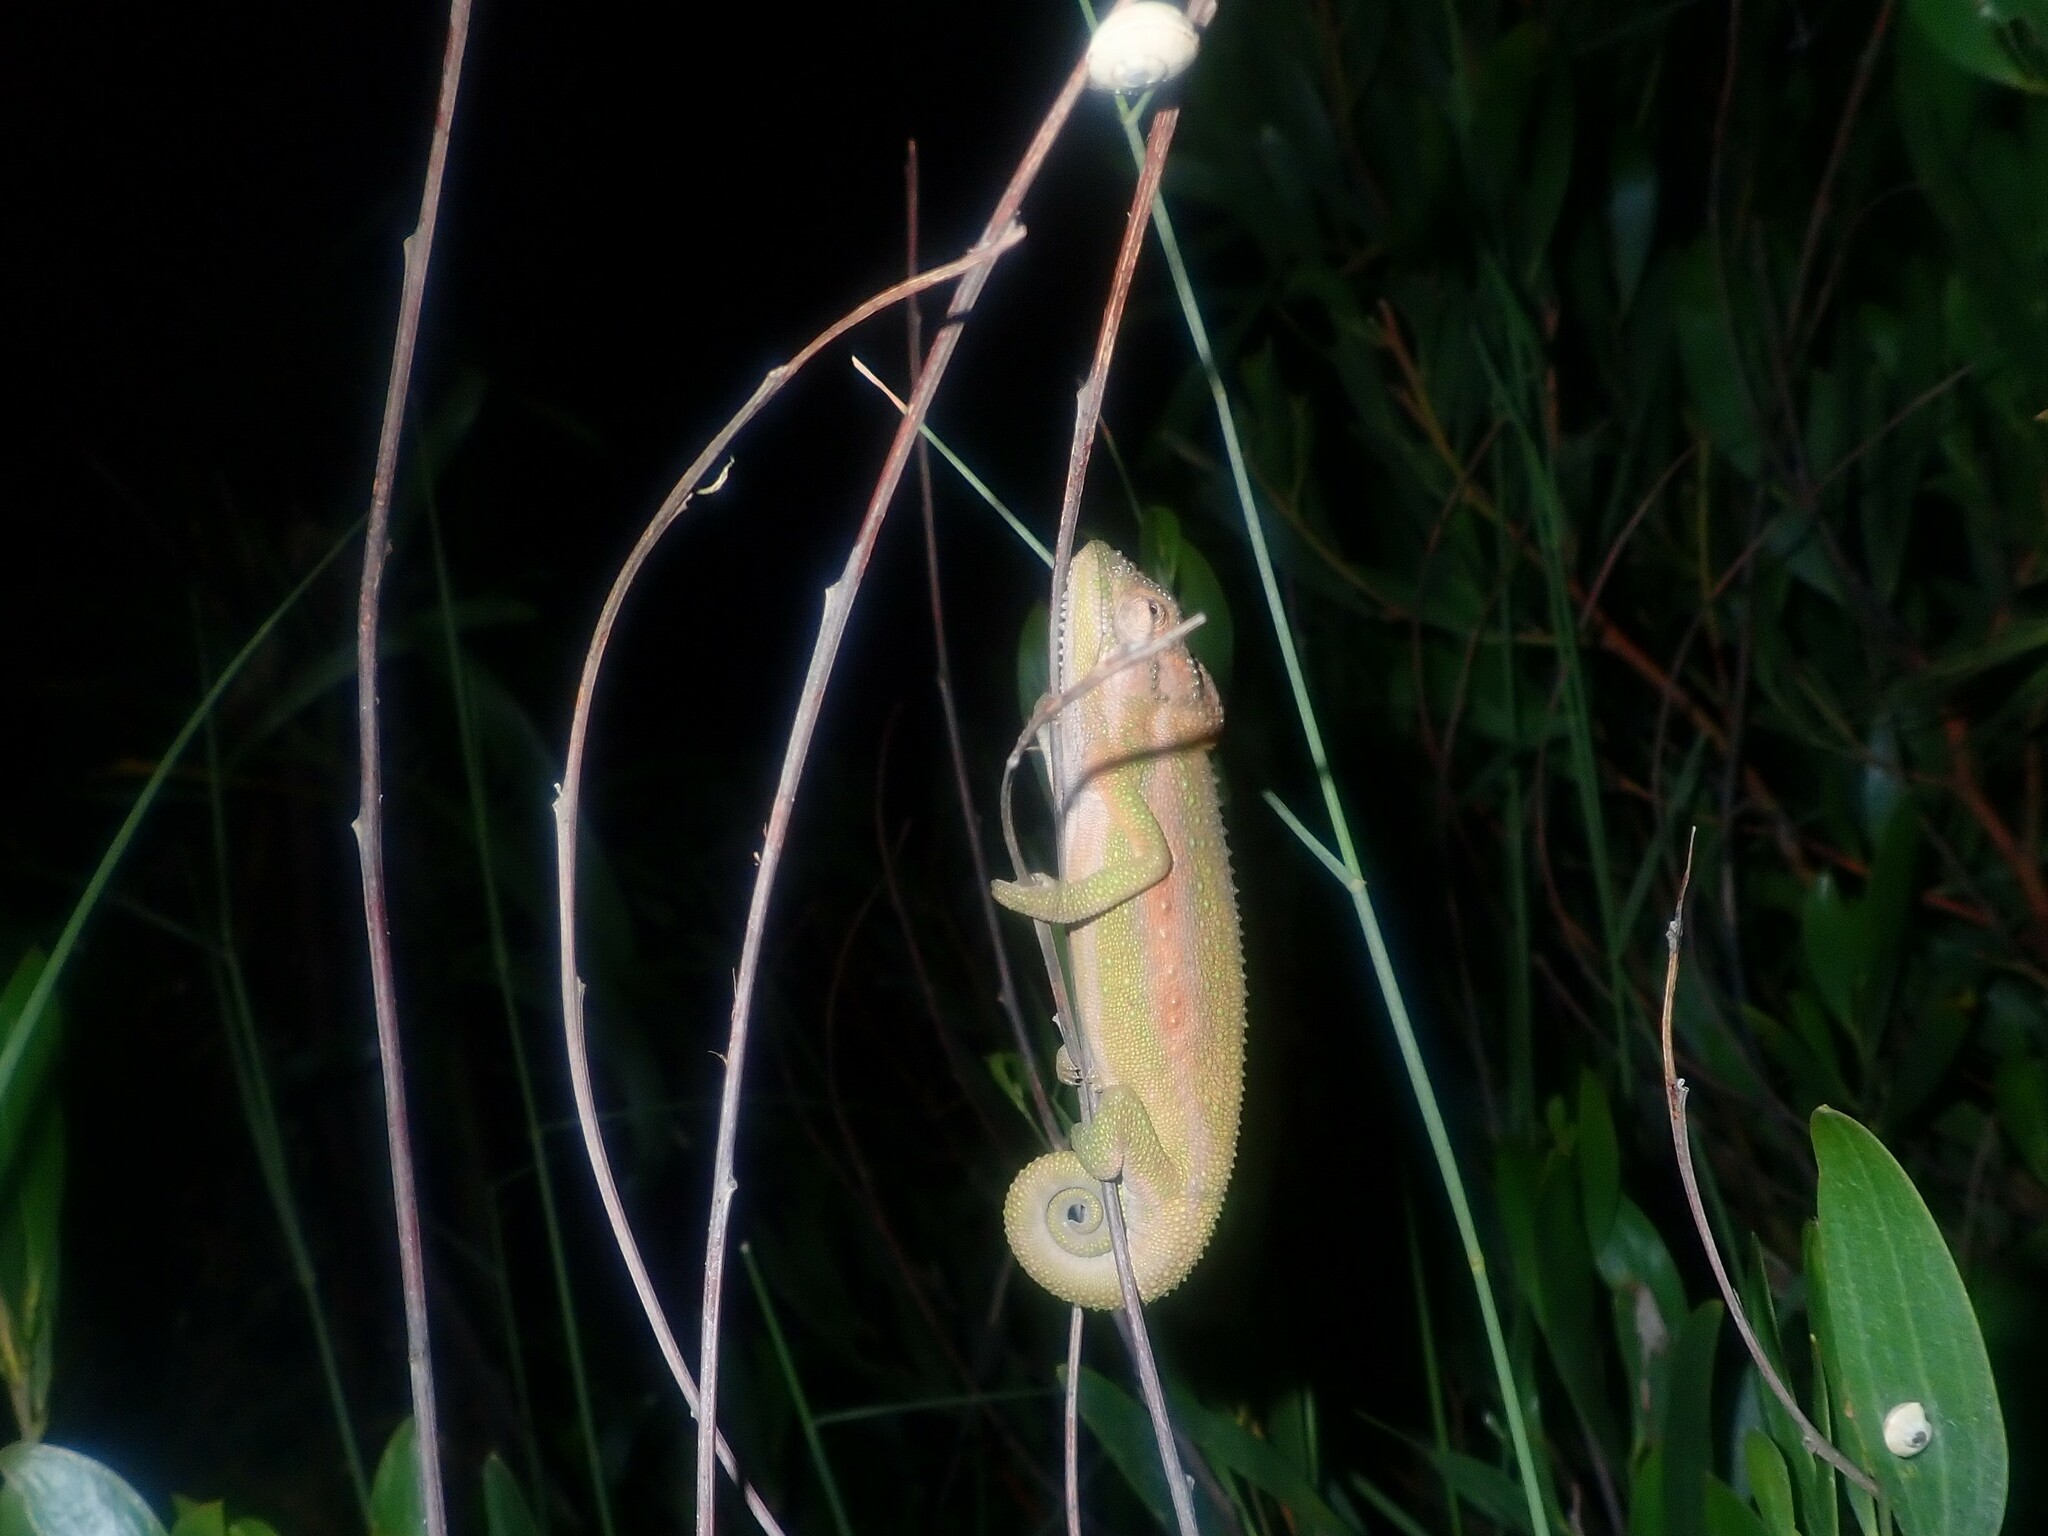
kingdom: Animalia
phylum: Chordata
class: Squamata
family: Chamaeleonidae
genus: Bradypodion
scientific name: Bradypodion pumilum
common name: Cape dwarf chameleon
